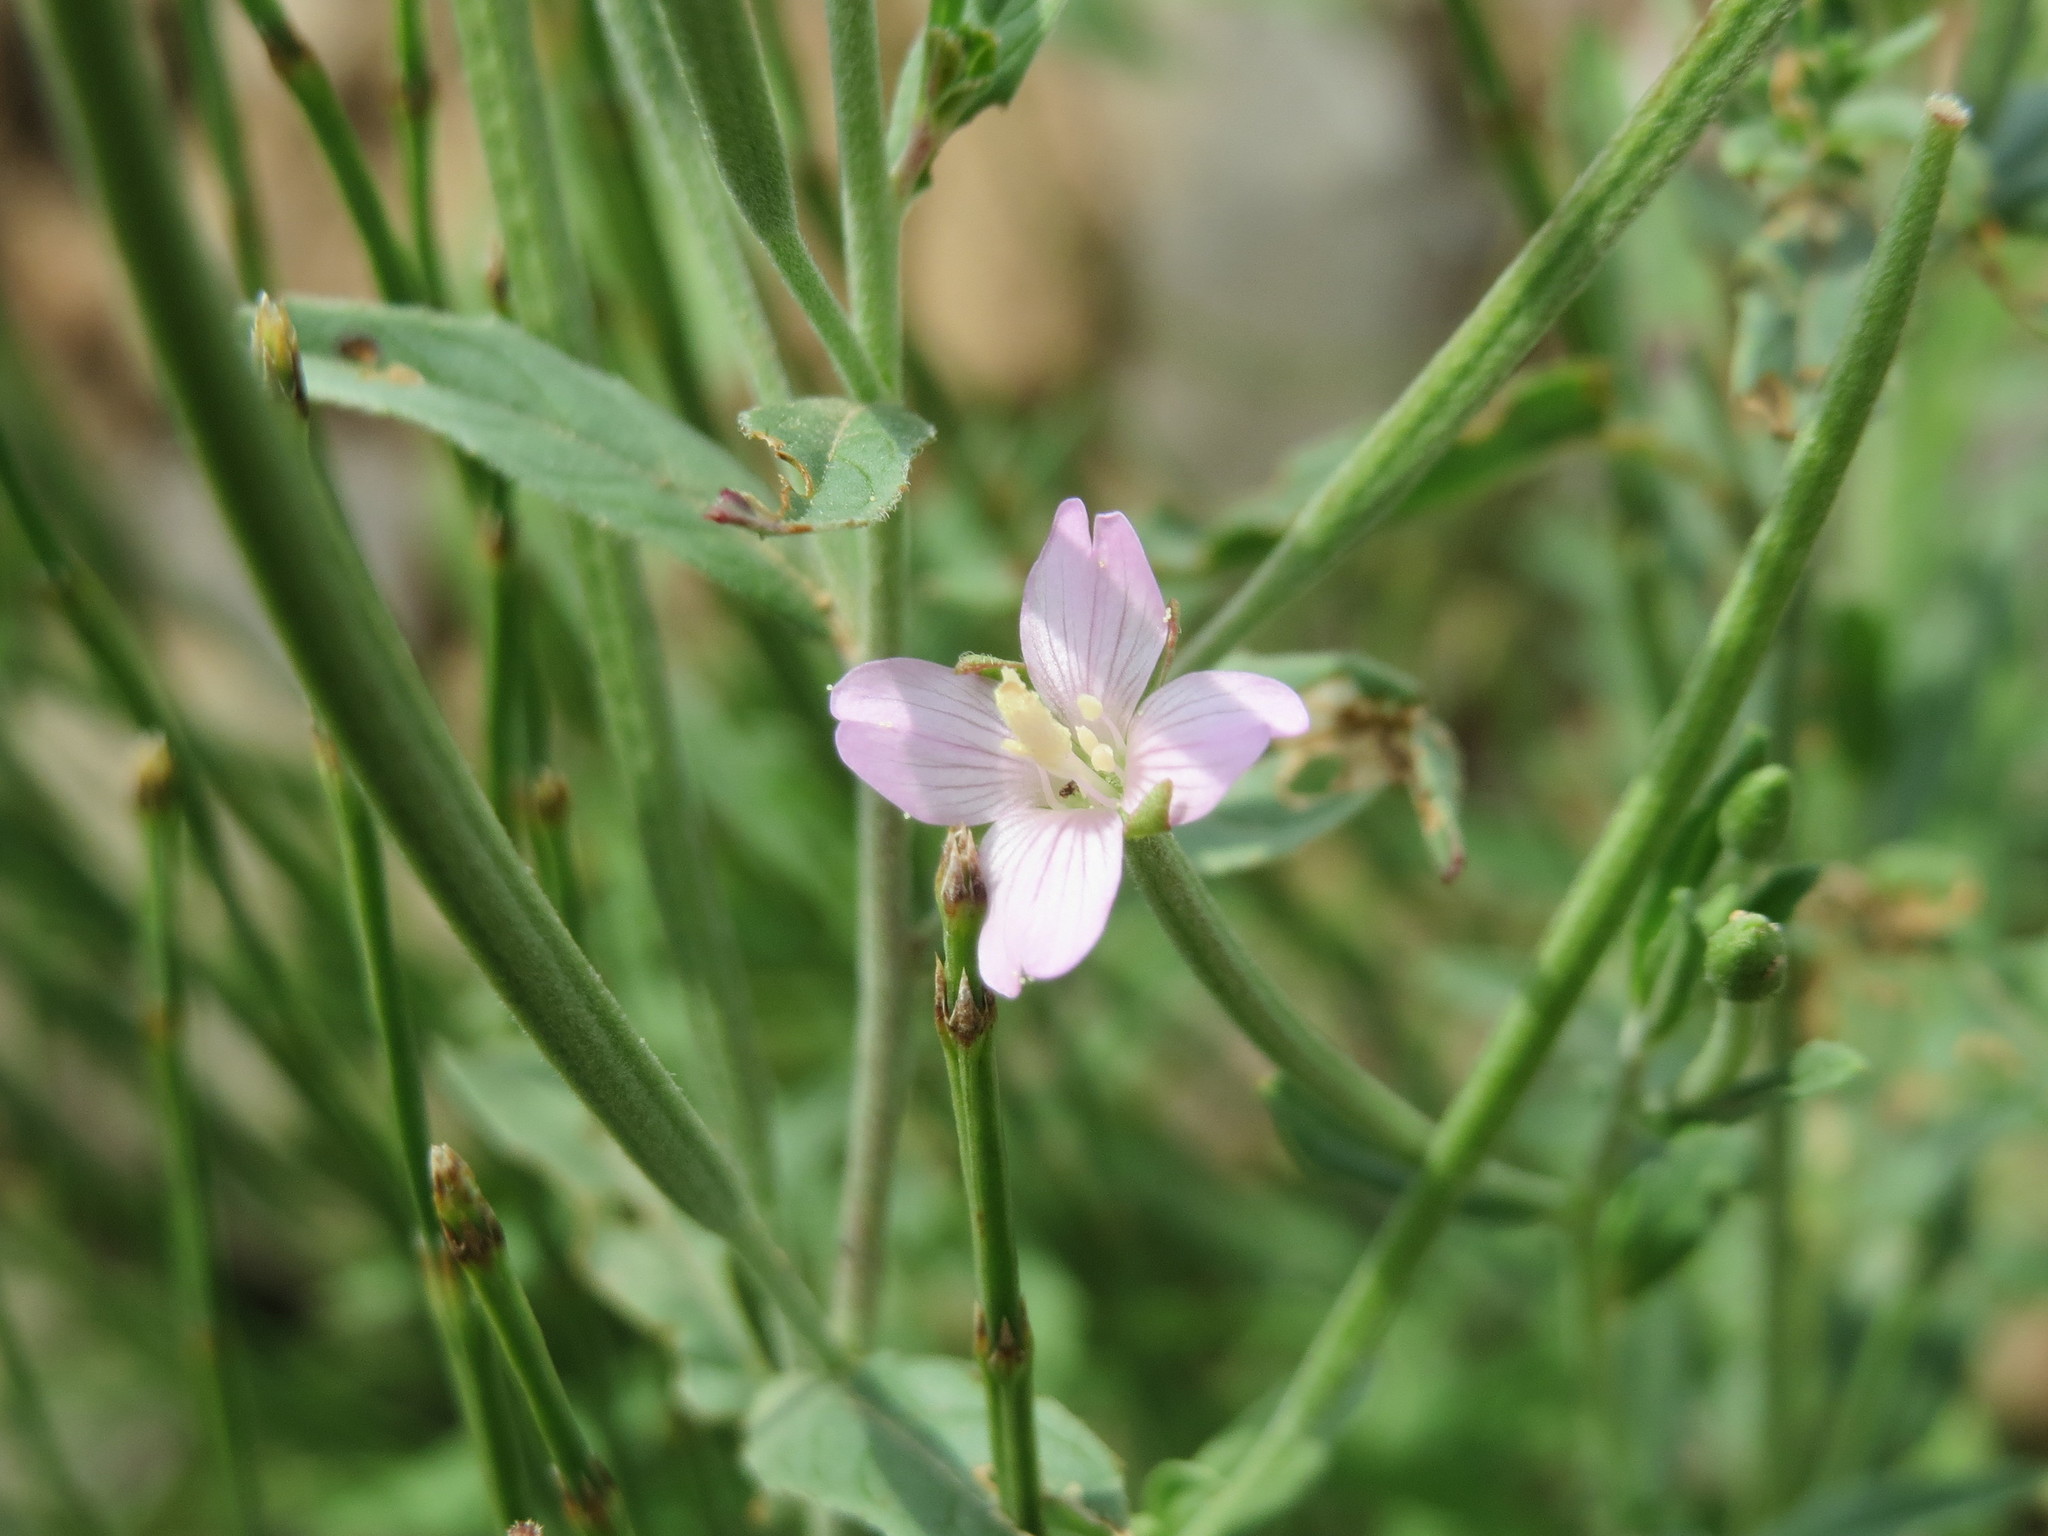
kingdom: Plantae
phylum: Tracheophyta
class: Magnoliopsida
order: Myrtales
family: Onagraceae
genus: Epilobium
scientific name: Epilobium obscurum
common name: Short-fruited willowherb
